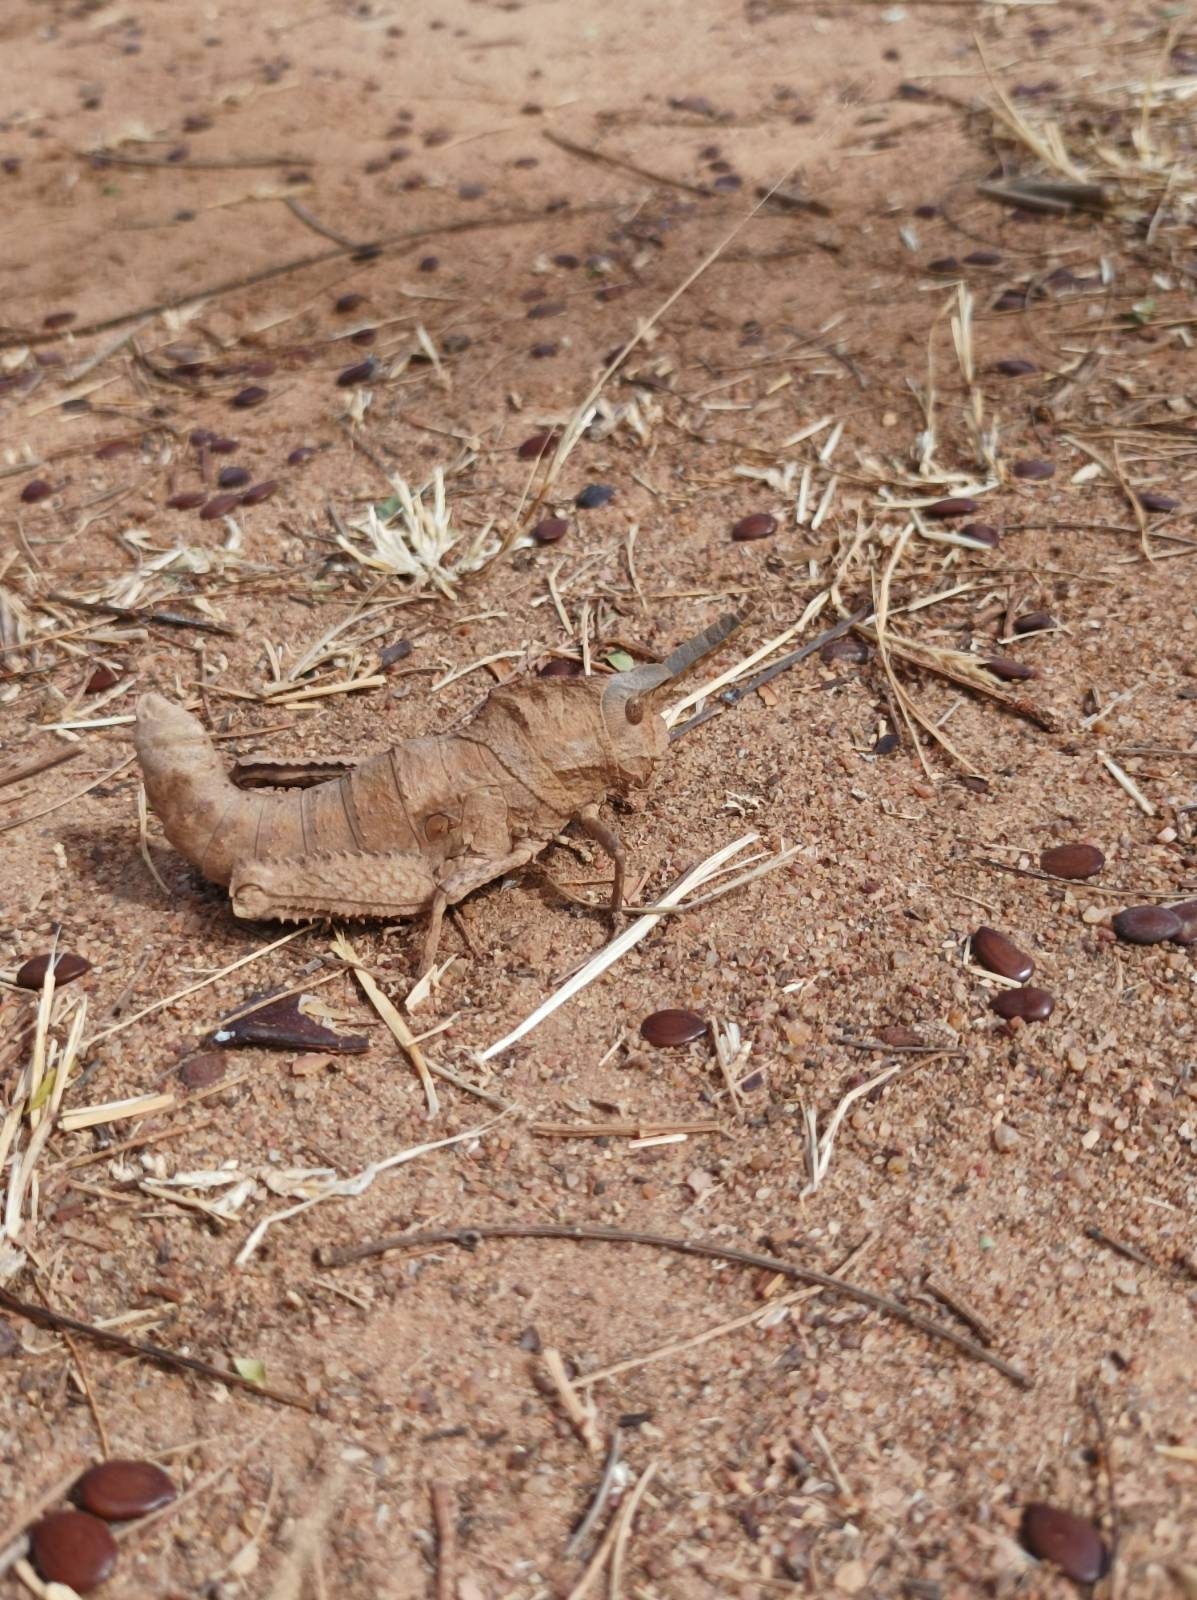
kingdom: Animalia
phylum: Arthropoda
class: Insecta
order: Orthoptera
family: Pamphagidae
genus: Xiphoceriana
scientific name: Xiphoceriana atrox
